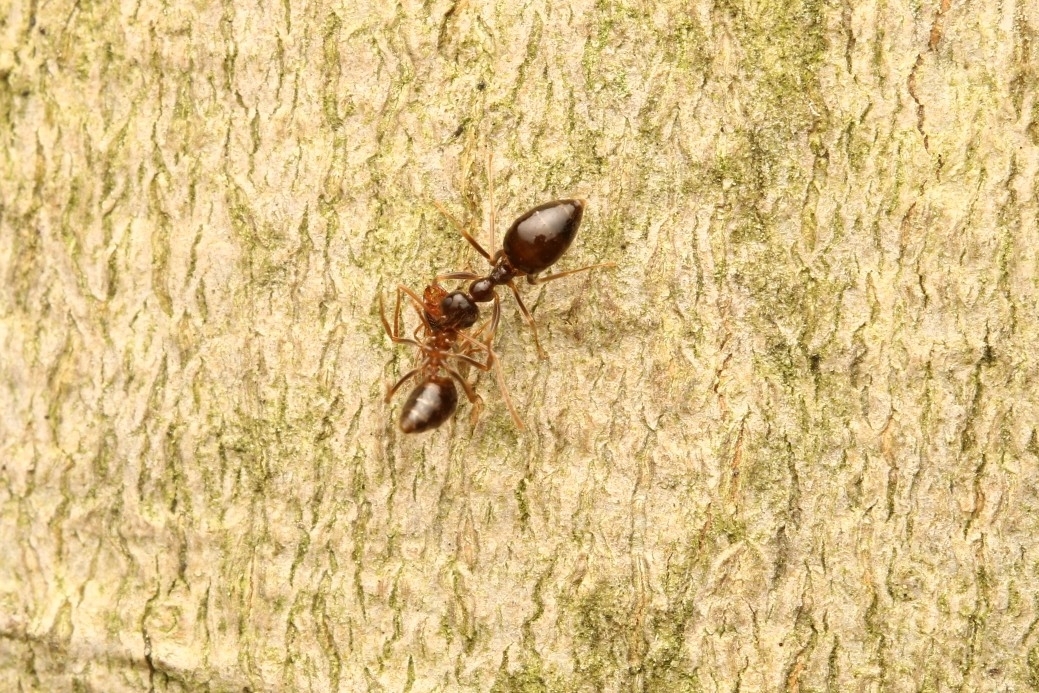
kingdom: Animalia
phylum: Arthropoda
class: Insecta
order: Hymenoptera
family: Formicidae
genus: Prenolepis
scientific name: Prenolepis imparis
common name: Small honey ant
